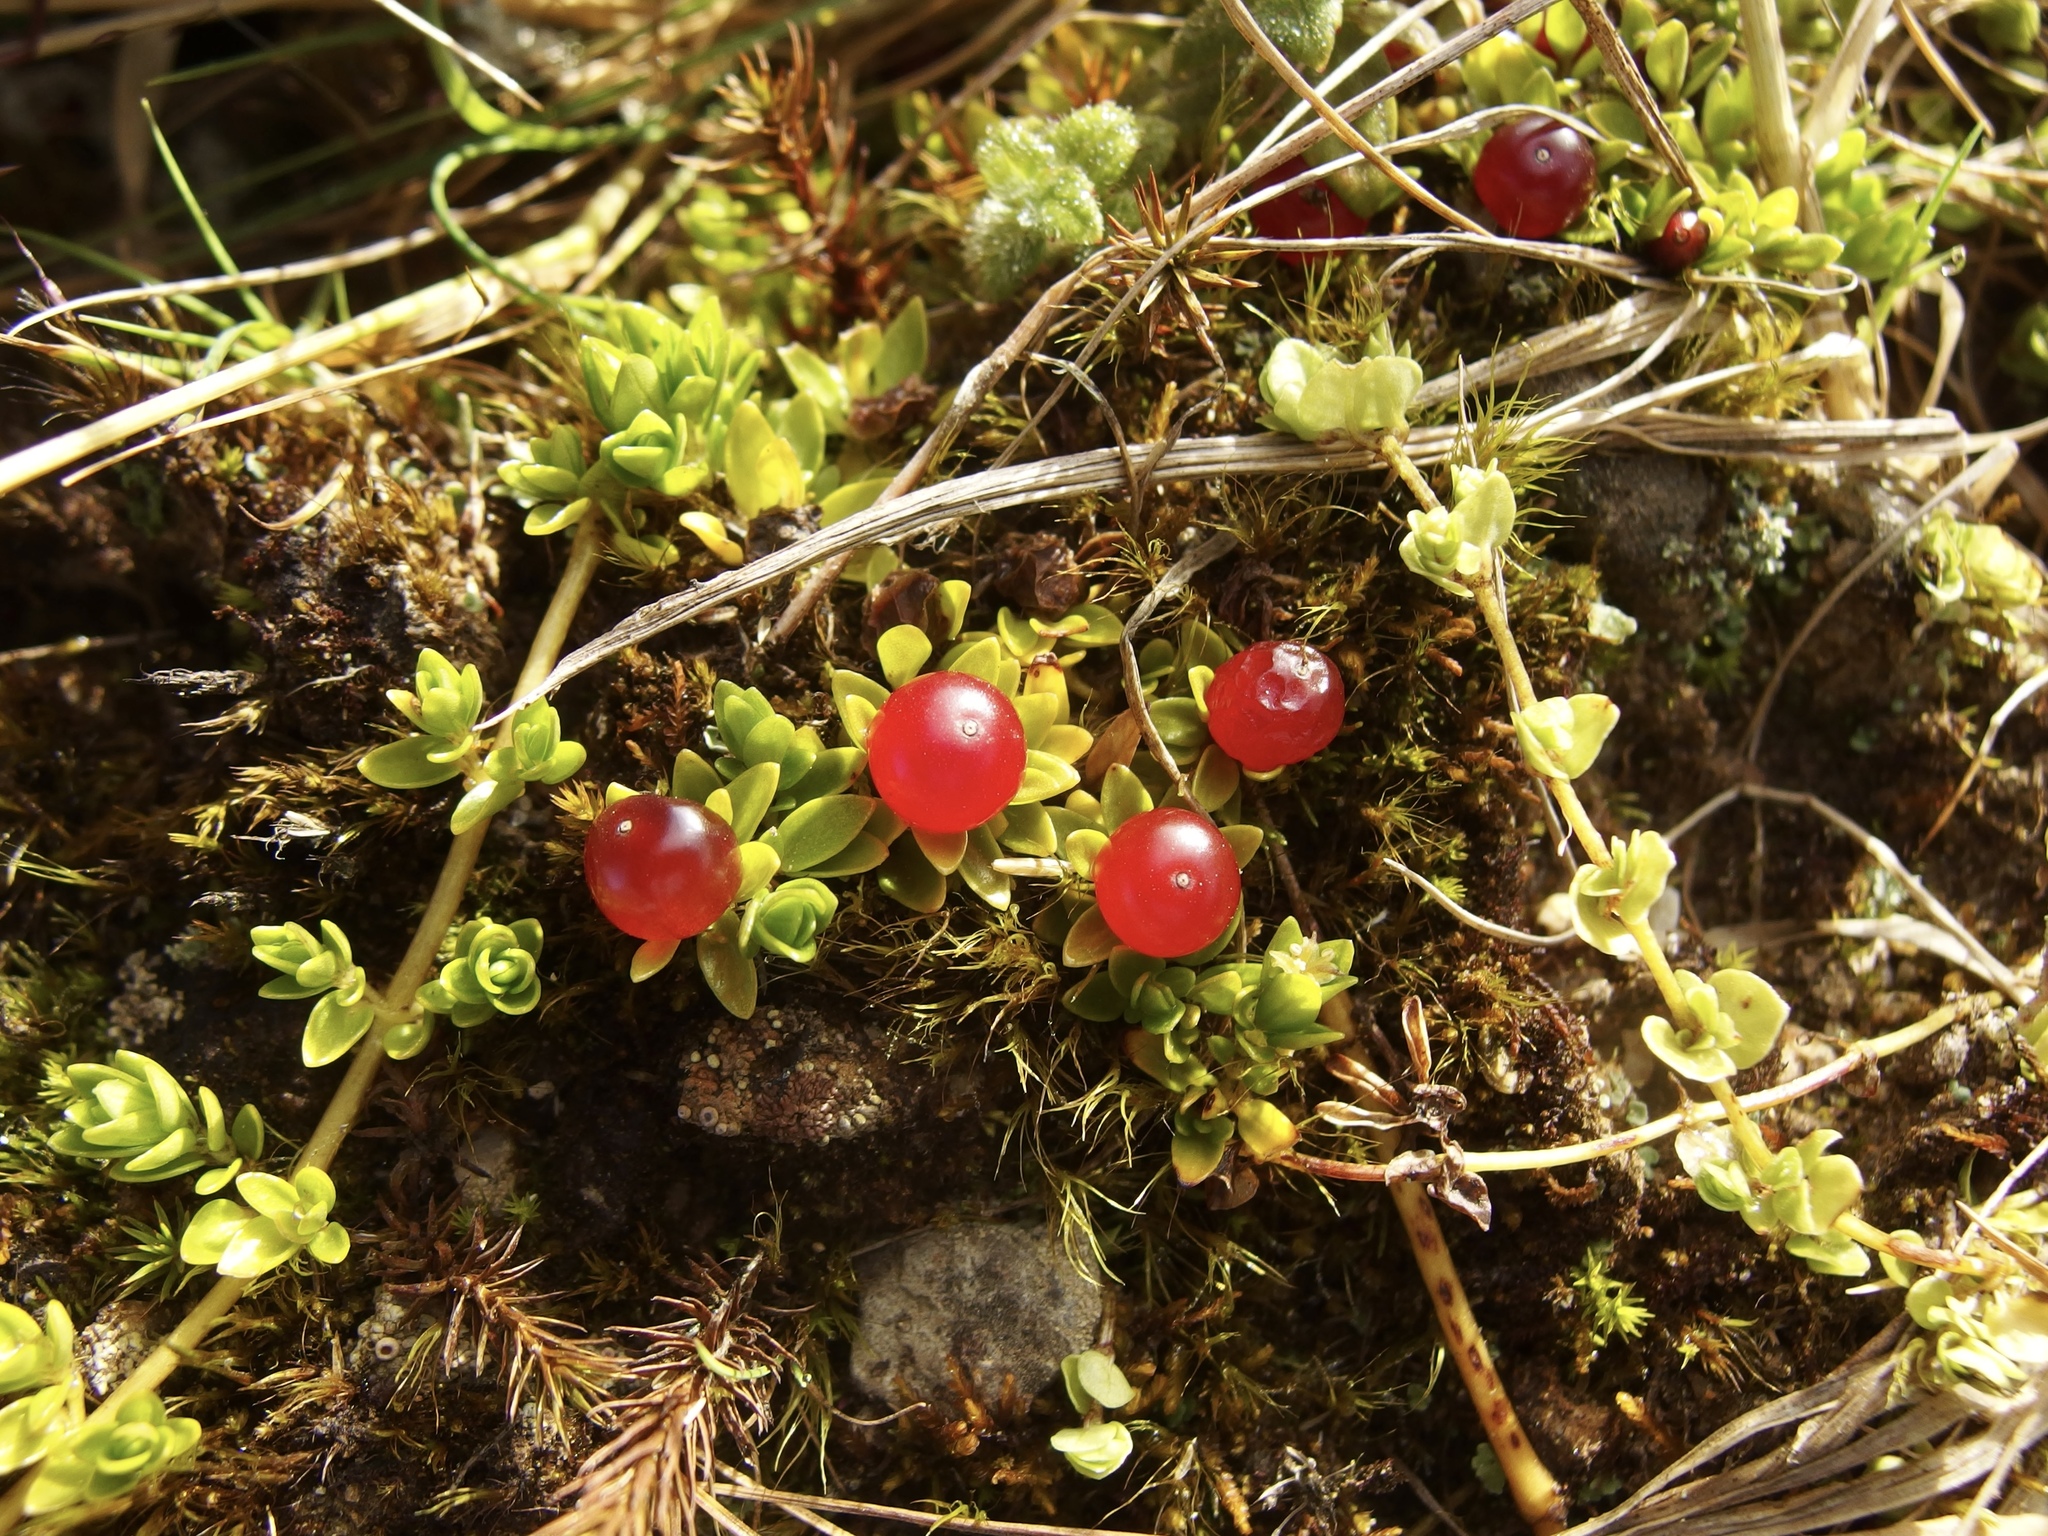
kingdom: Plantae
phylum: Tracheophyta
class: Magnoliopsida
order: Gentianales
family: Rubiaceae
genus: Nertera
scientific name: Nertera granadensis
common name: Beadplant
